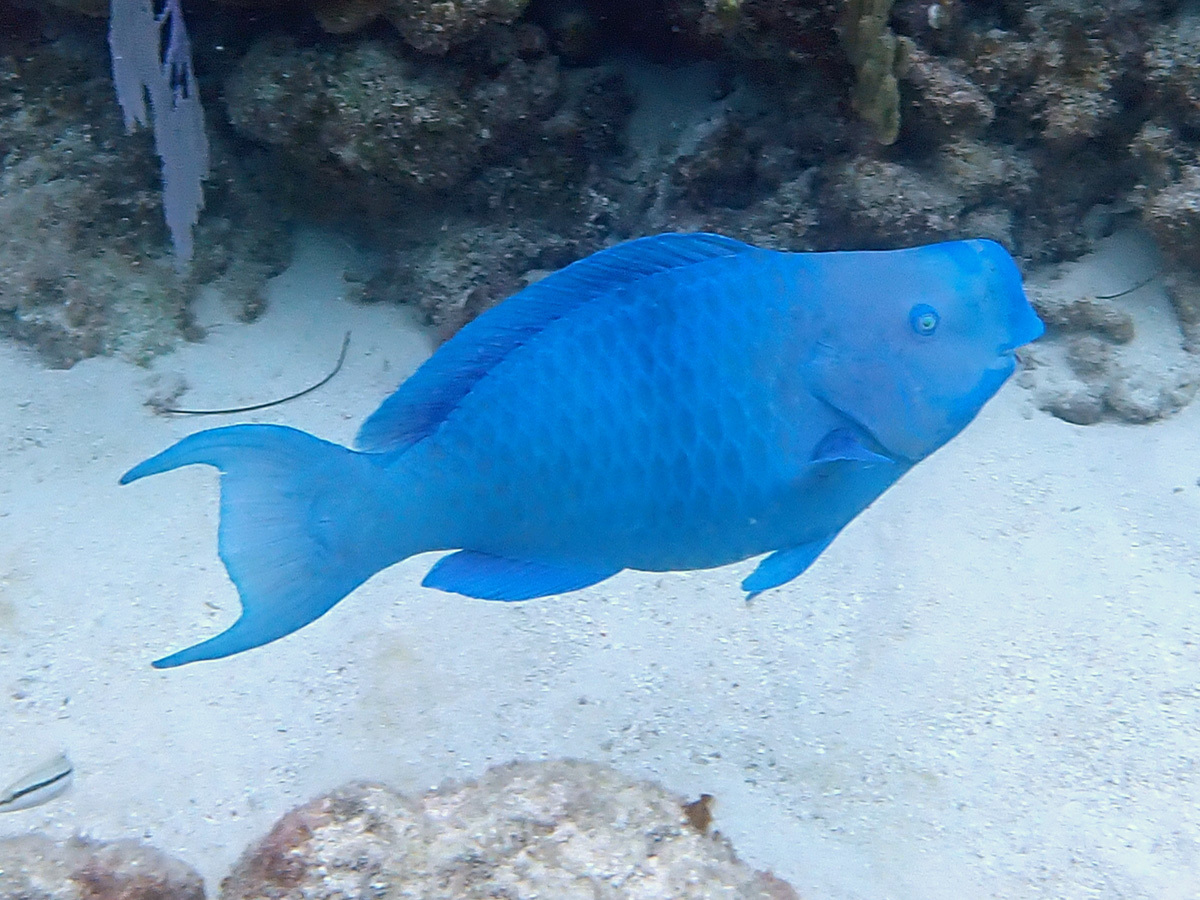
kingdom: Animalia
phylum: Chordata
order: Perciformes
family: Scaridae
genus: Scarus
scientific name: Scarus coeruleus
